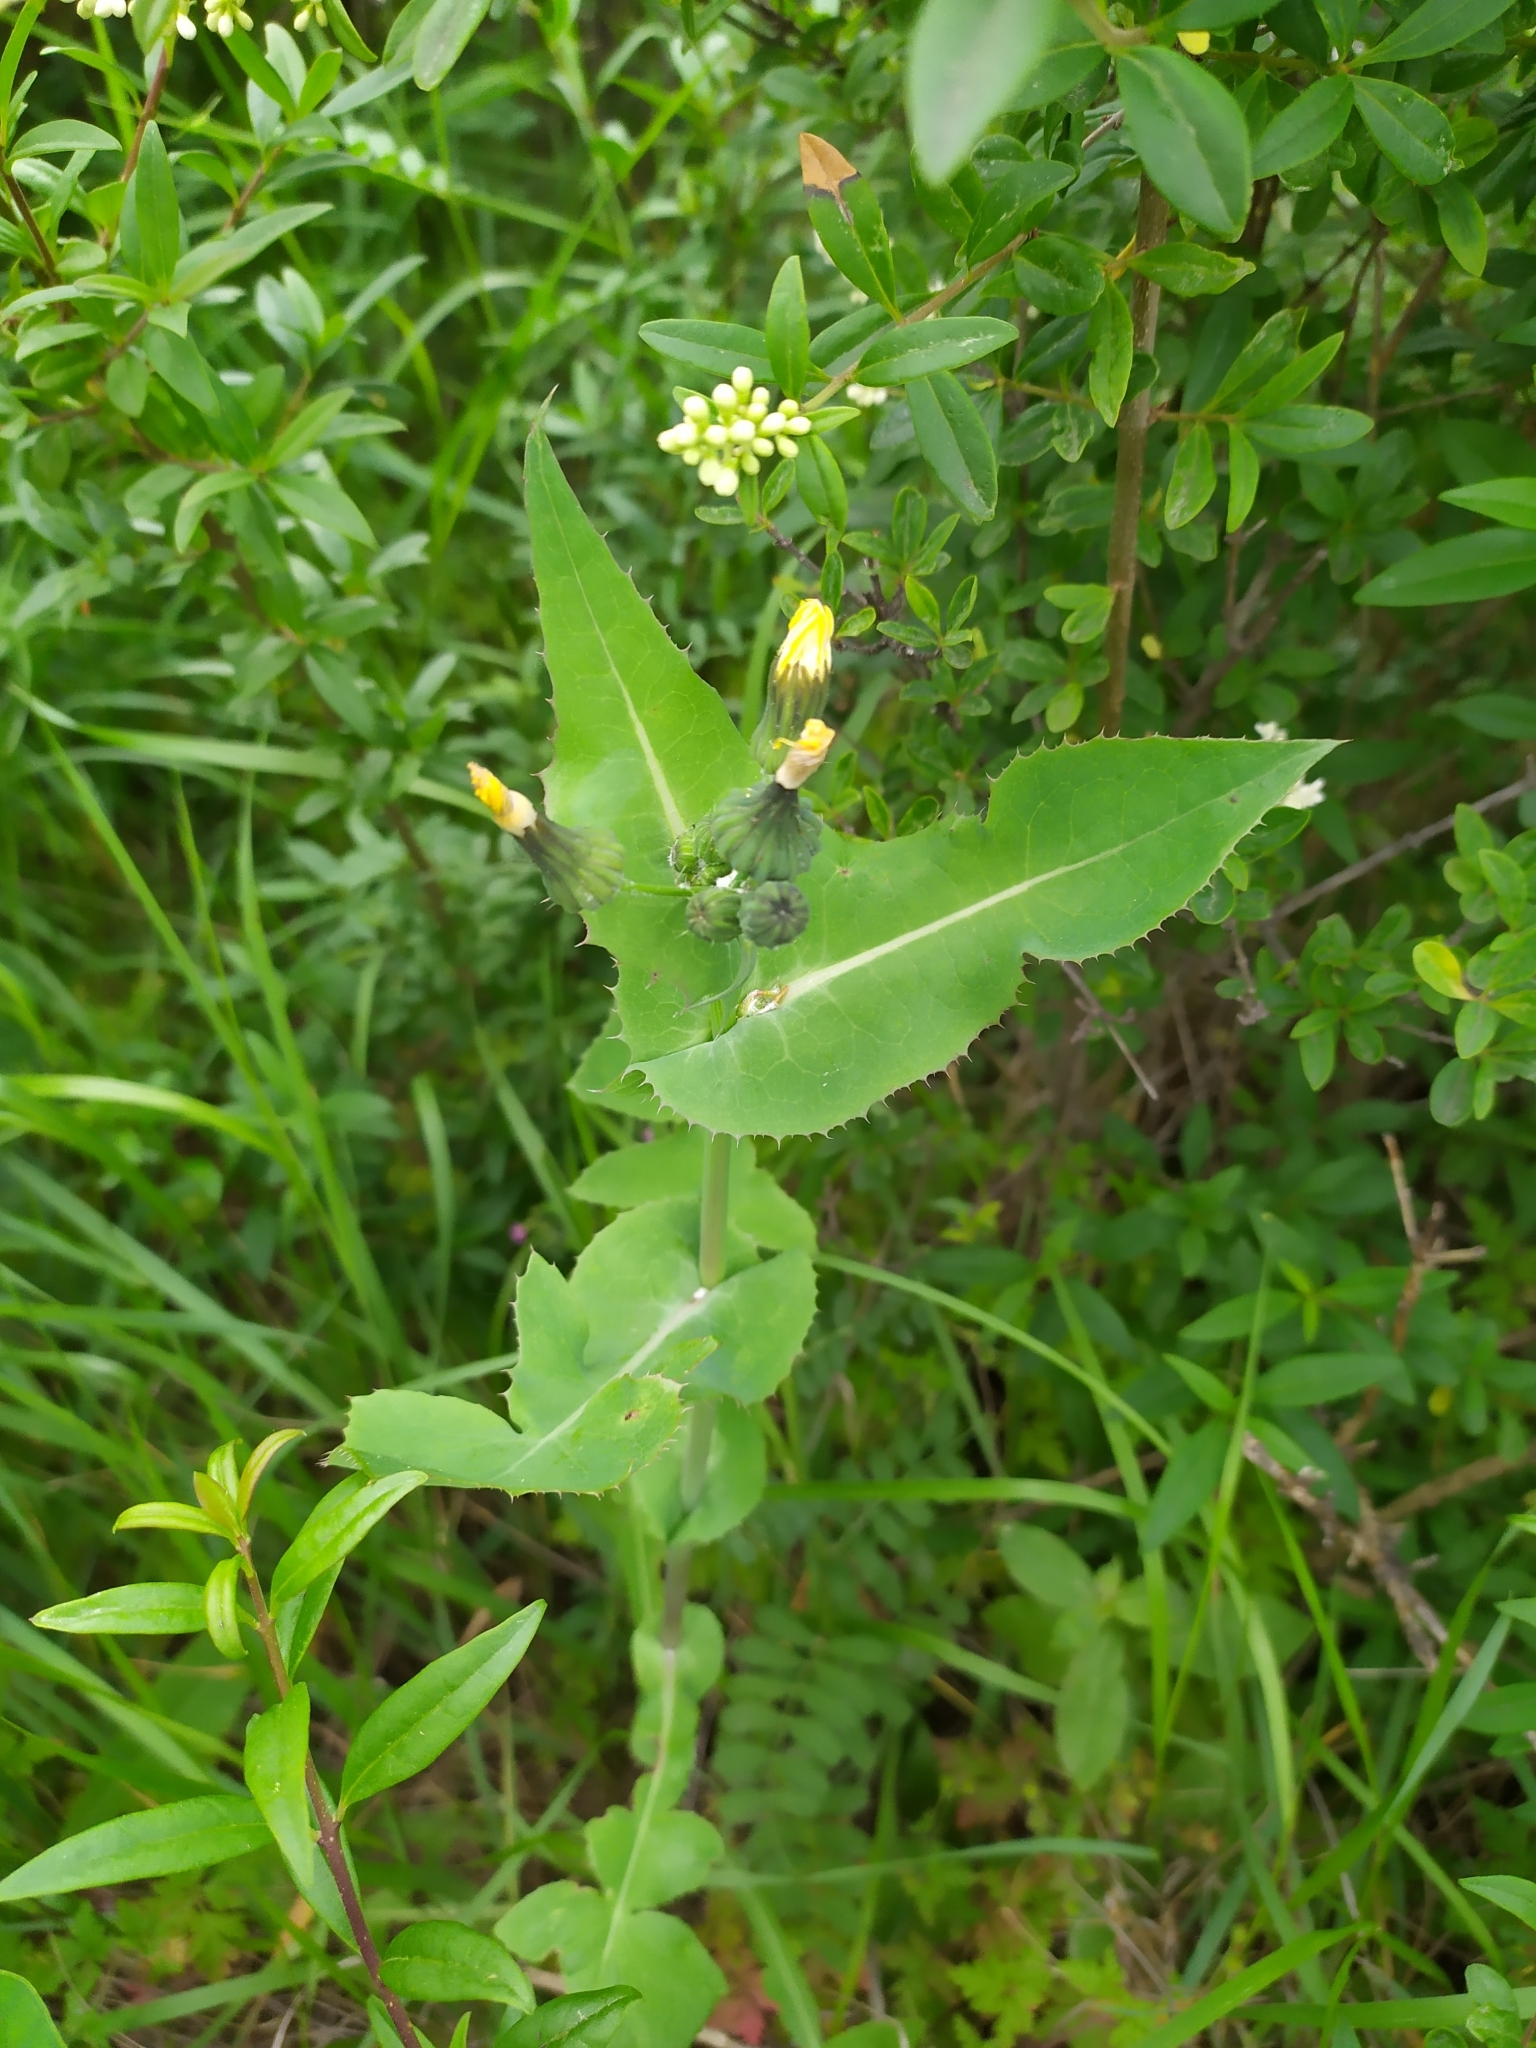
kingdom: Plantae
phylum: Tracheophyta
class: Magnoliopsida
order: Asterales
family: Asteraceae
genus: Sonchus
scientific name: Sonchus oleraceus
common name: Common sowthistle
